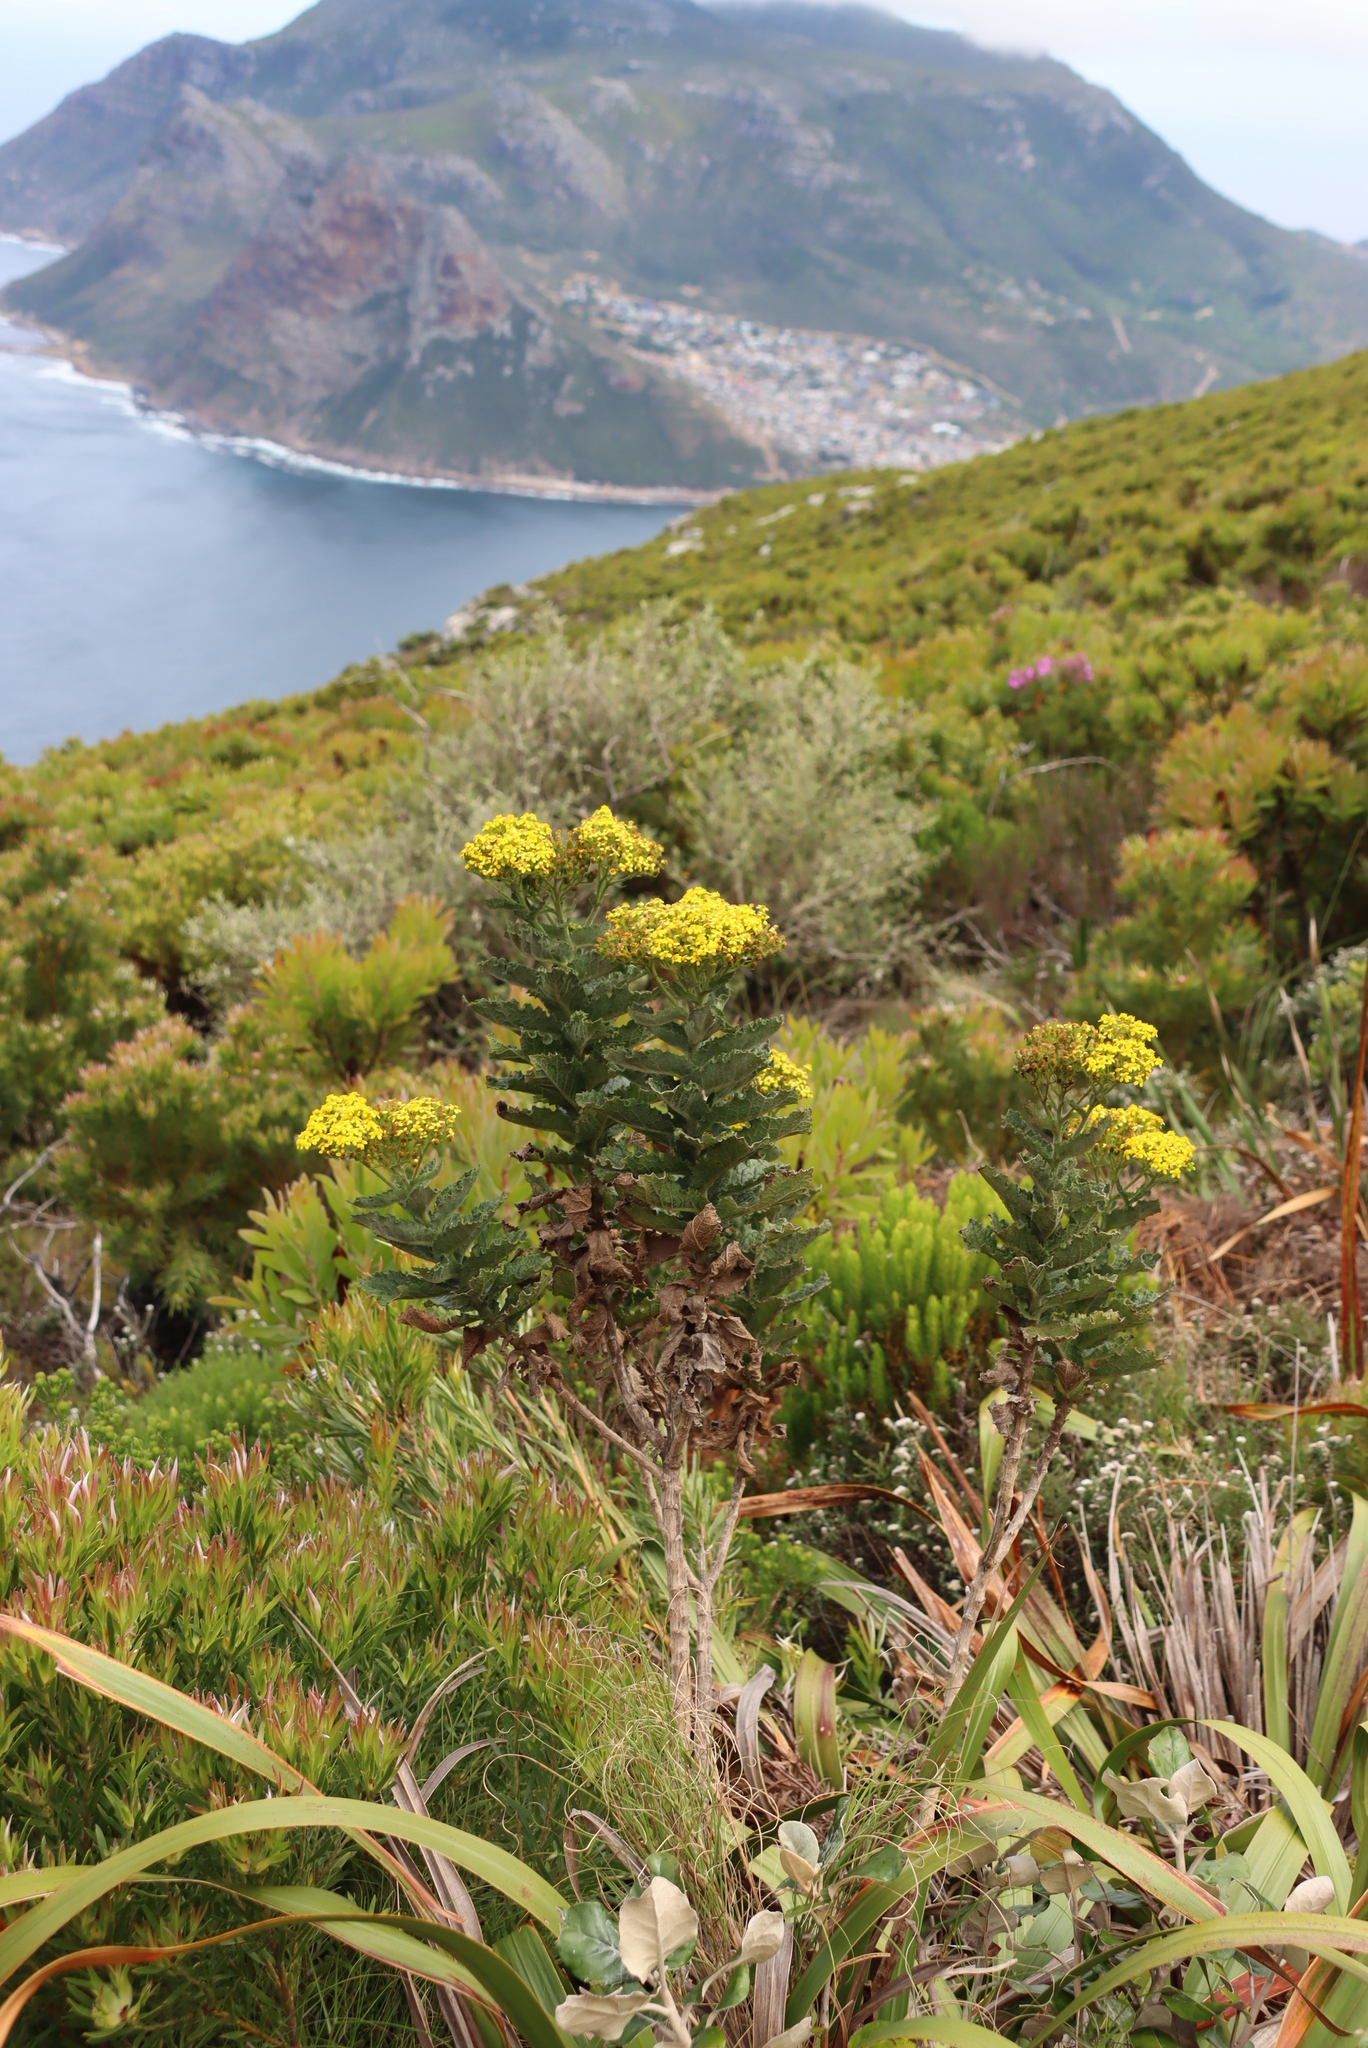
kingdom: Plantae
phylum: Tracheophyta
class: Magnoliopsida
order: Asterales
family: Asteraceae
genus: Senecio
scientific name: Senecio rigidus
